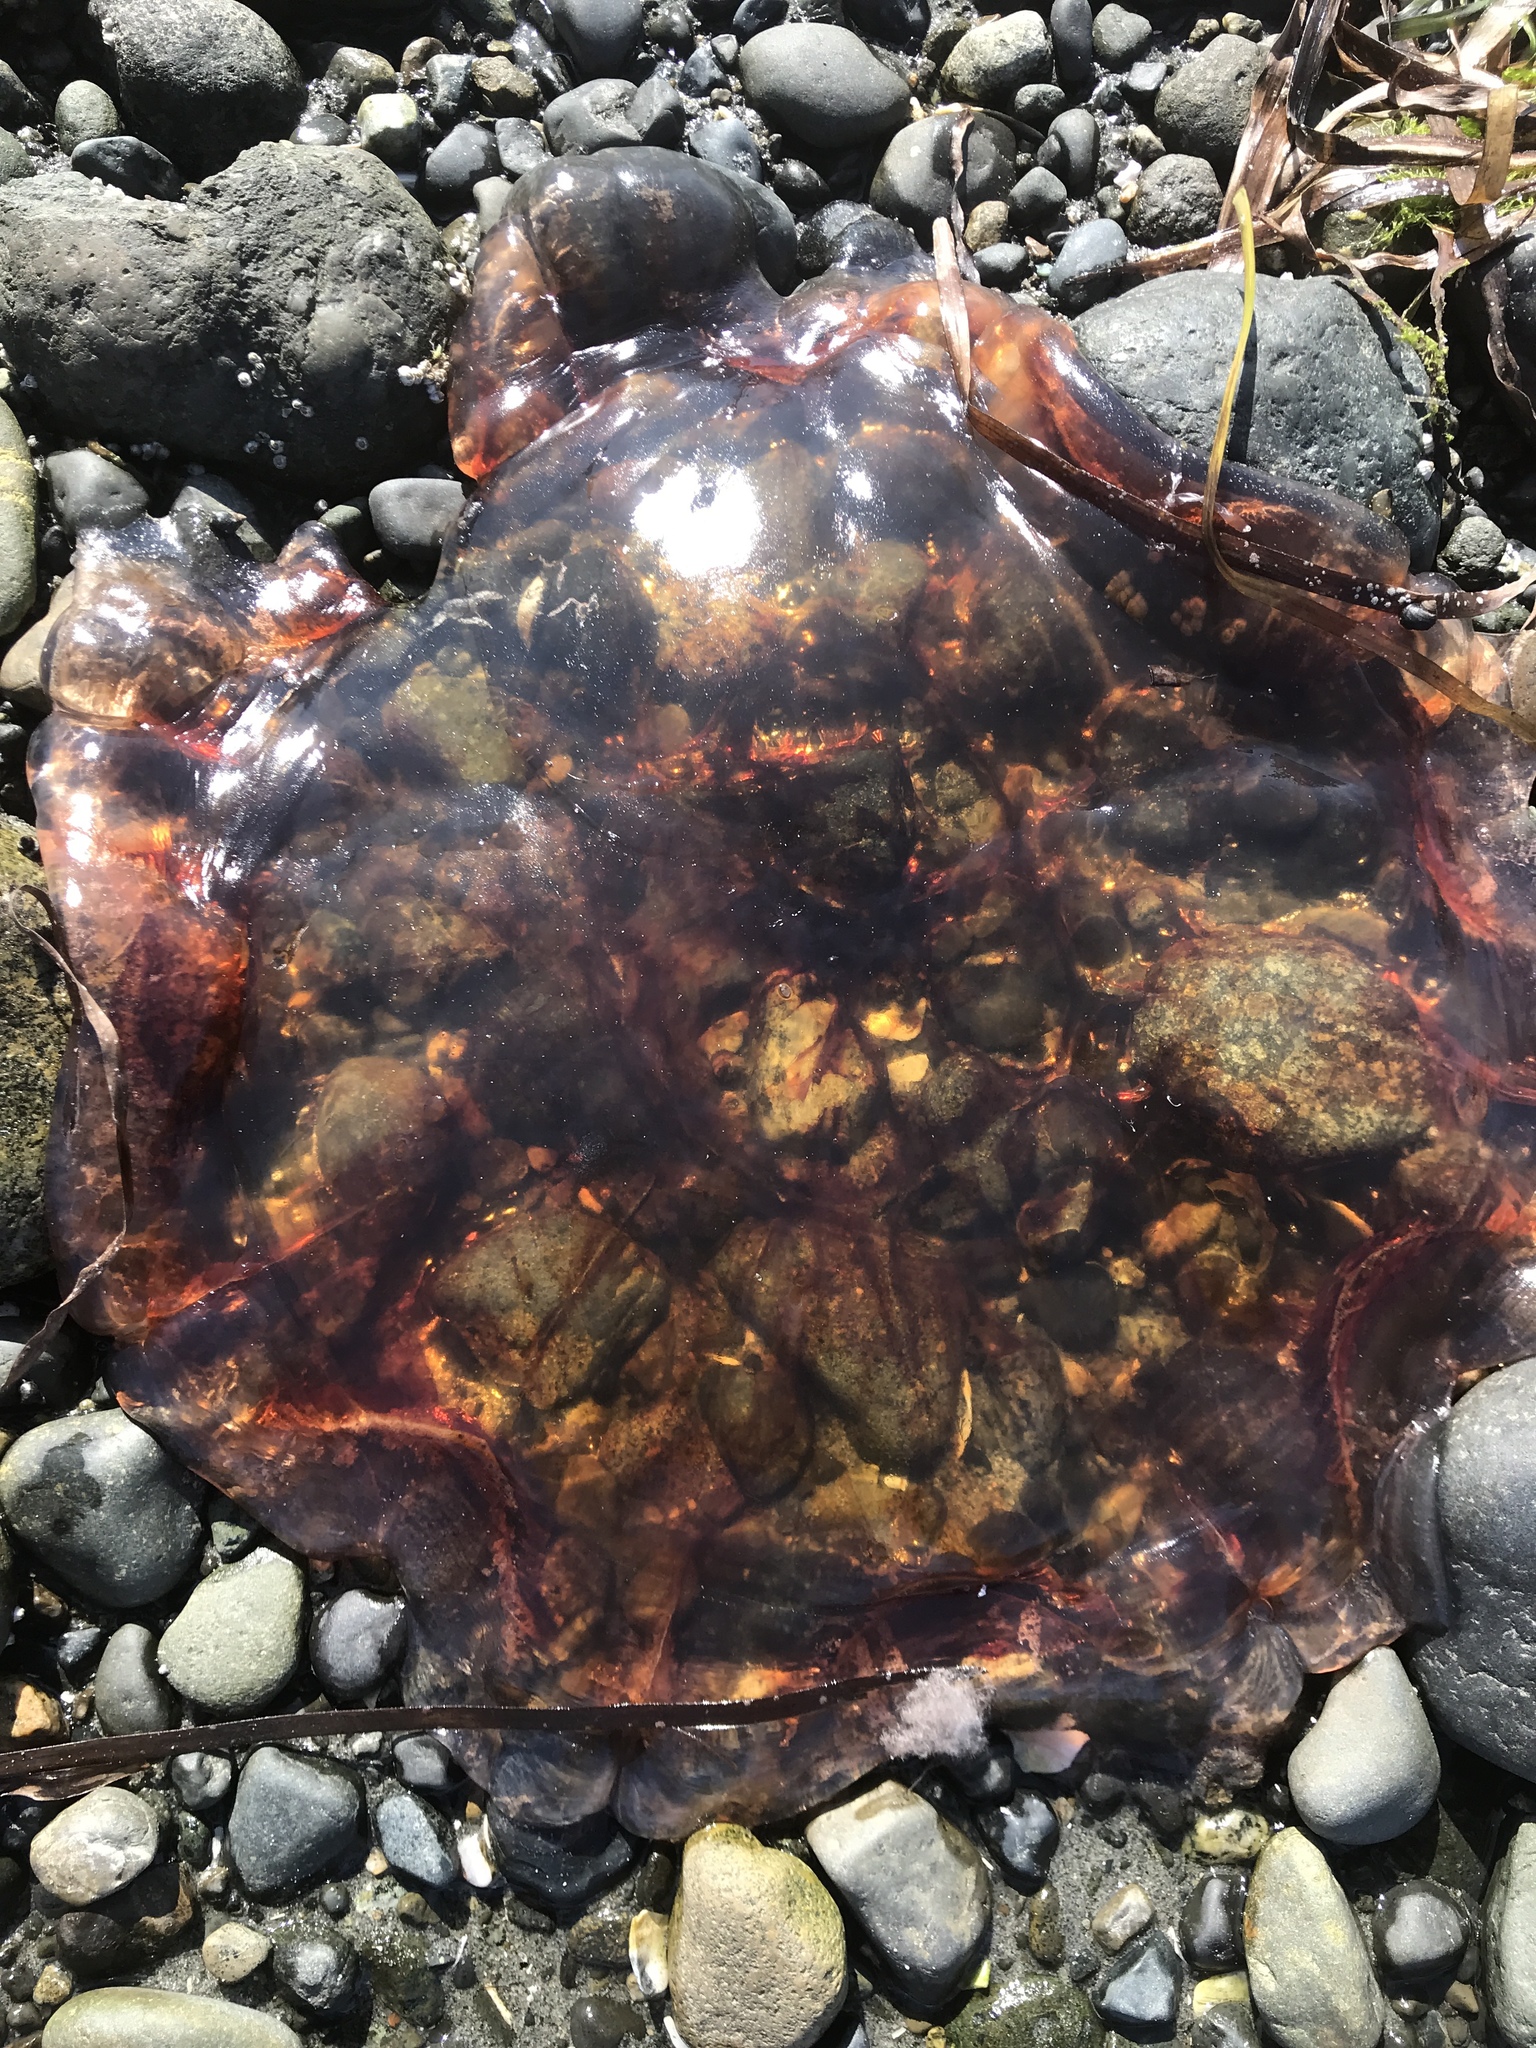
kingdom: Animalia
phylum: Cnidaria
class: Scyphozoa
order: Semaeostomeae
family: Cyaneidae
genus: Cyanea
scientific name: Cyanea ferruginea
